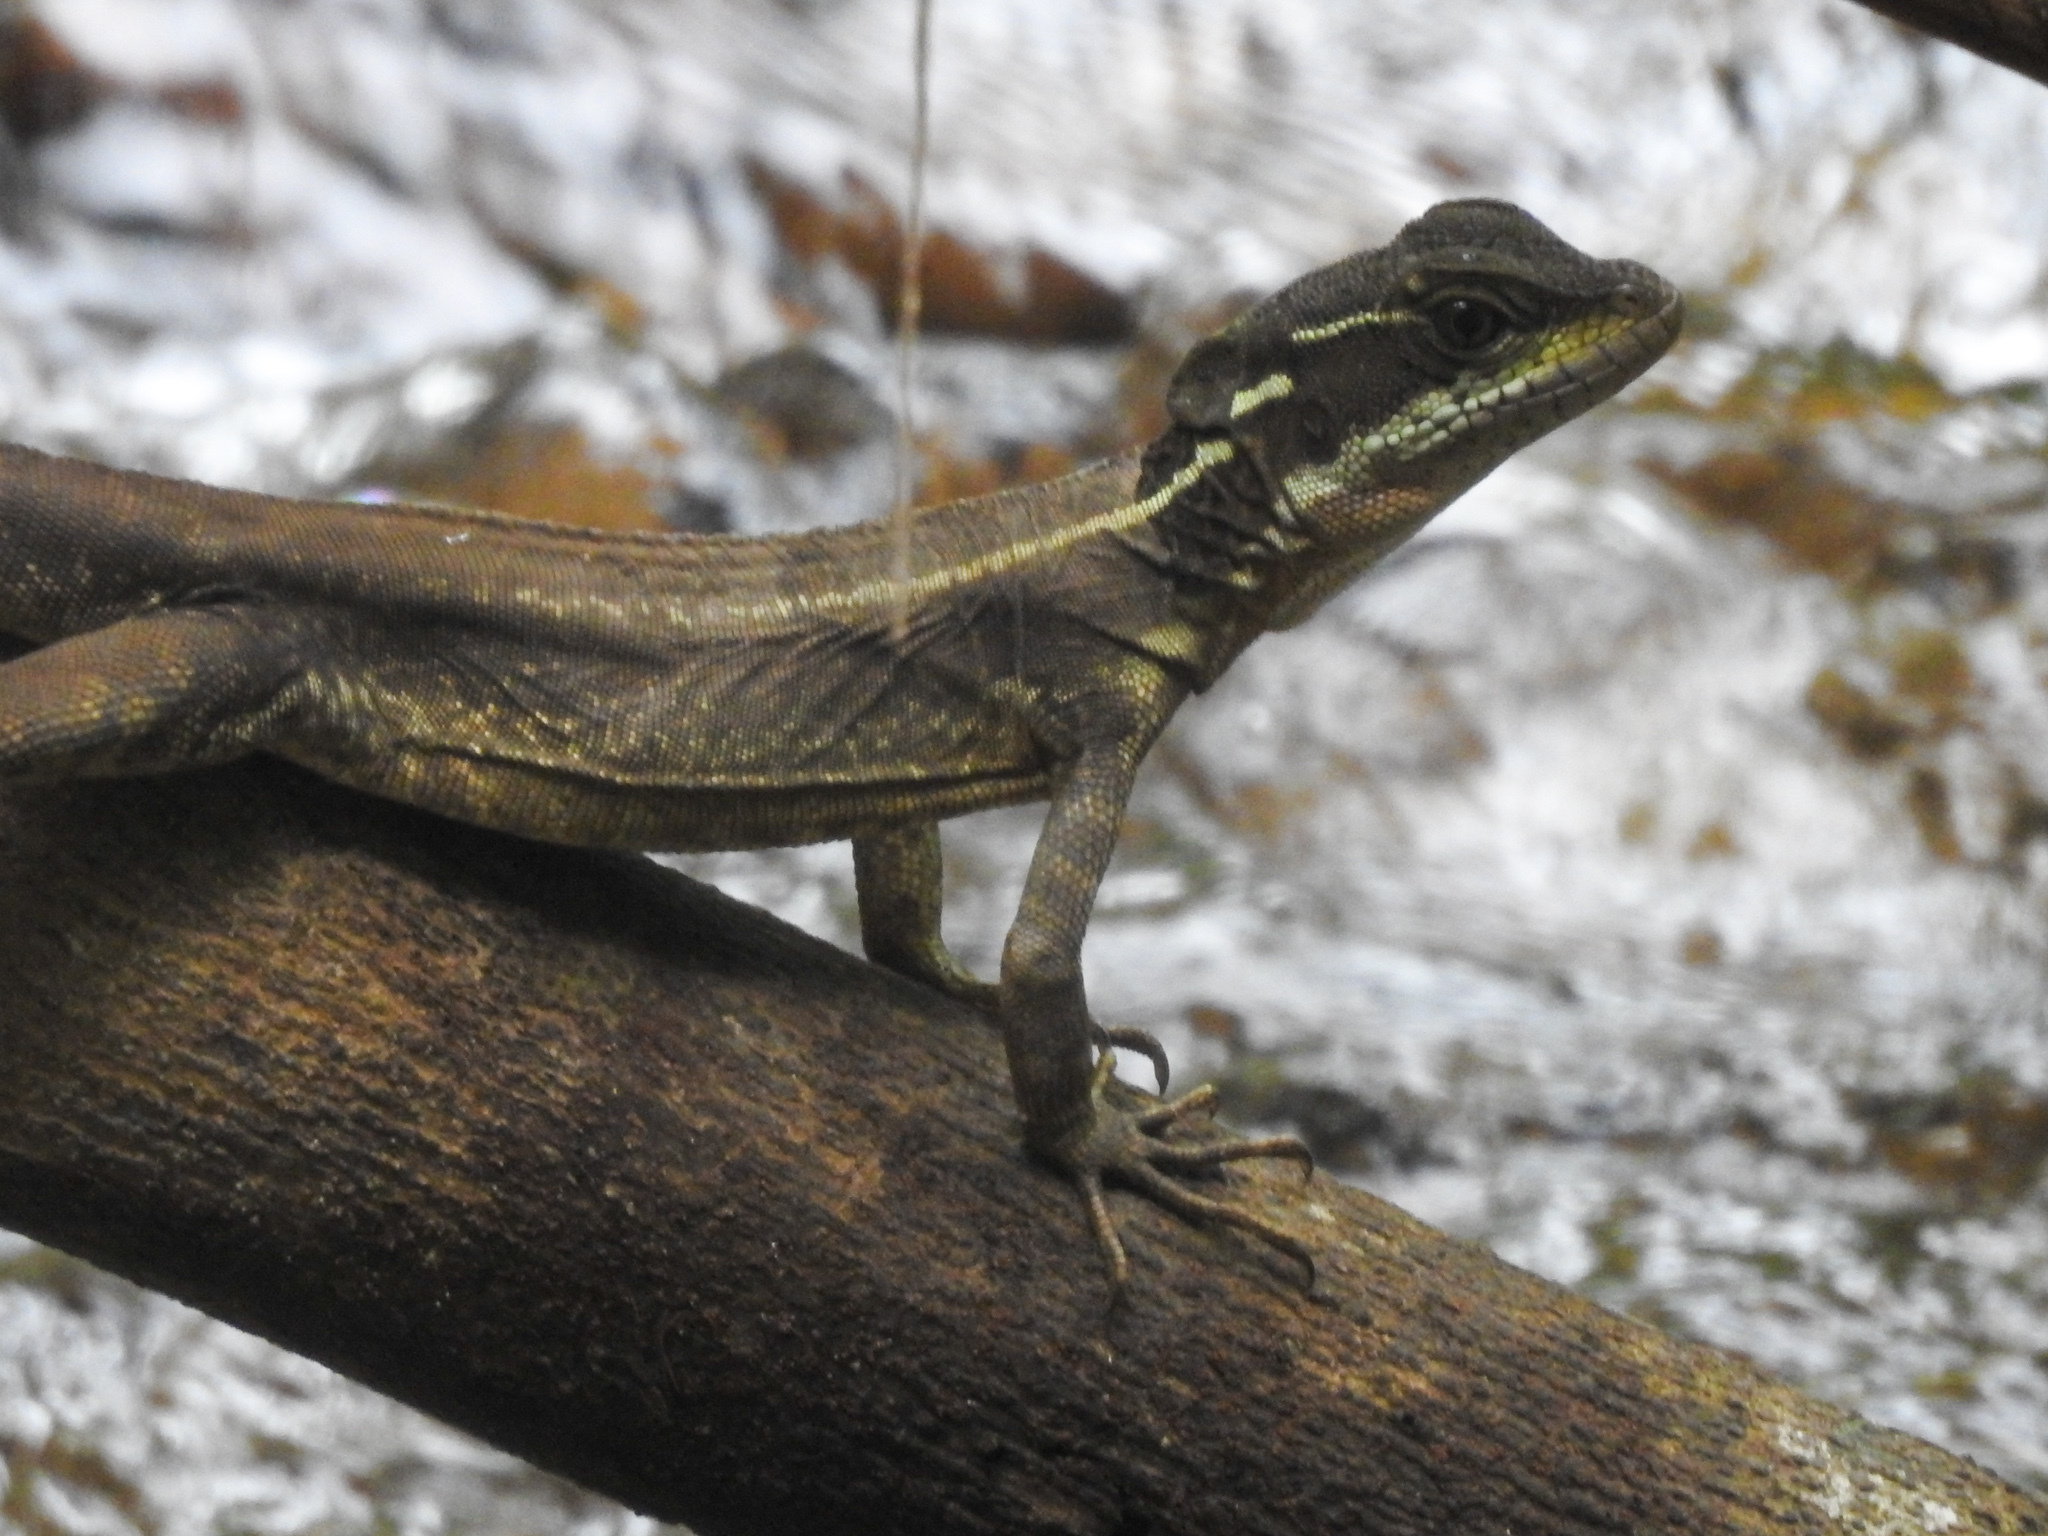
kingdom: Animalia
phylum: Chordata
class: Squamata
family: Corytophanidae
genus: Basiliscus
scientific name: Basiliscus basiliscus
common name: Common basilisk
